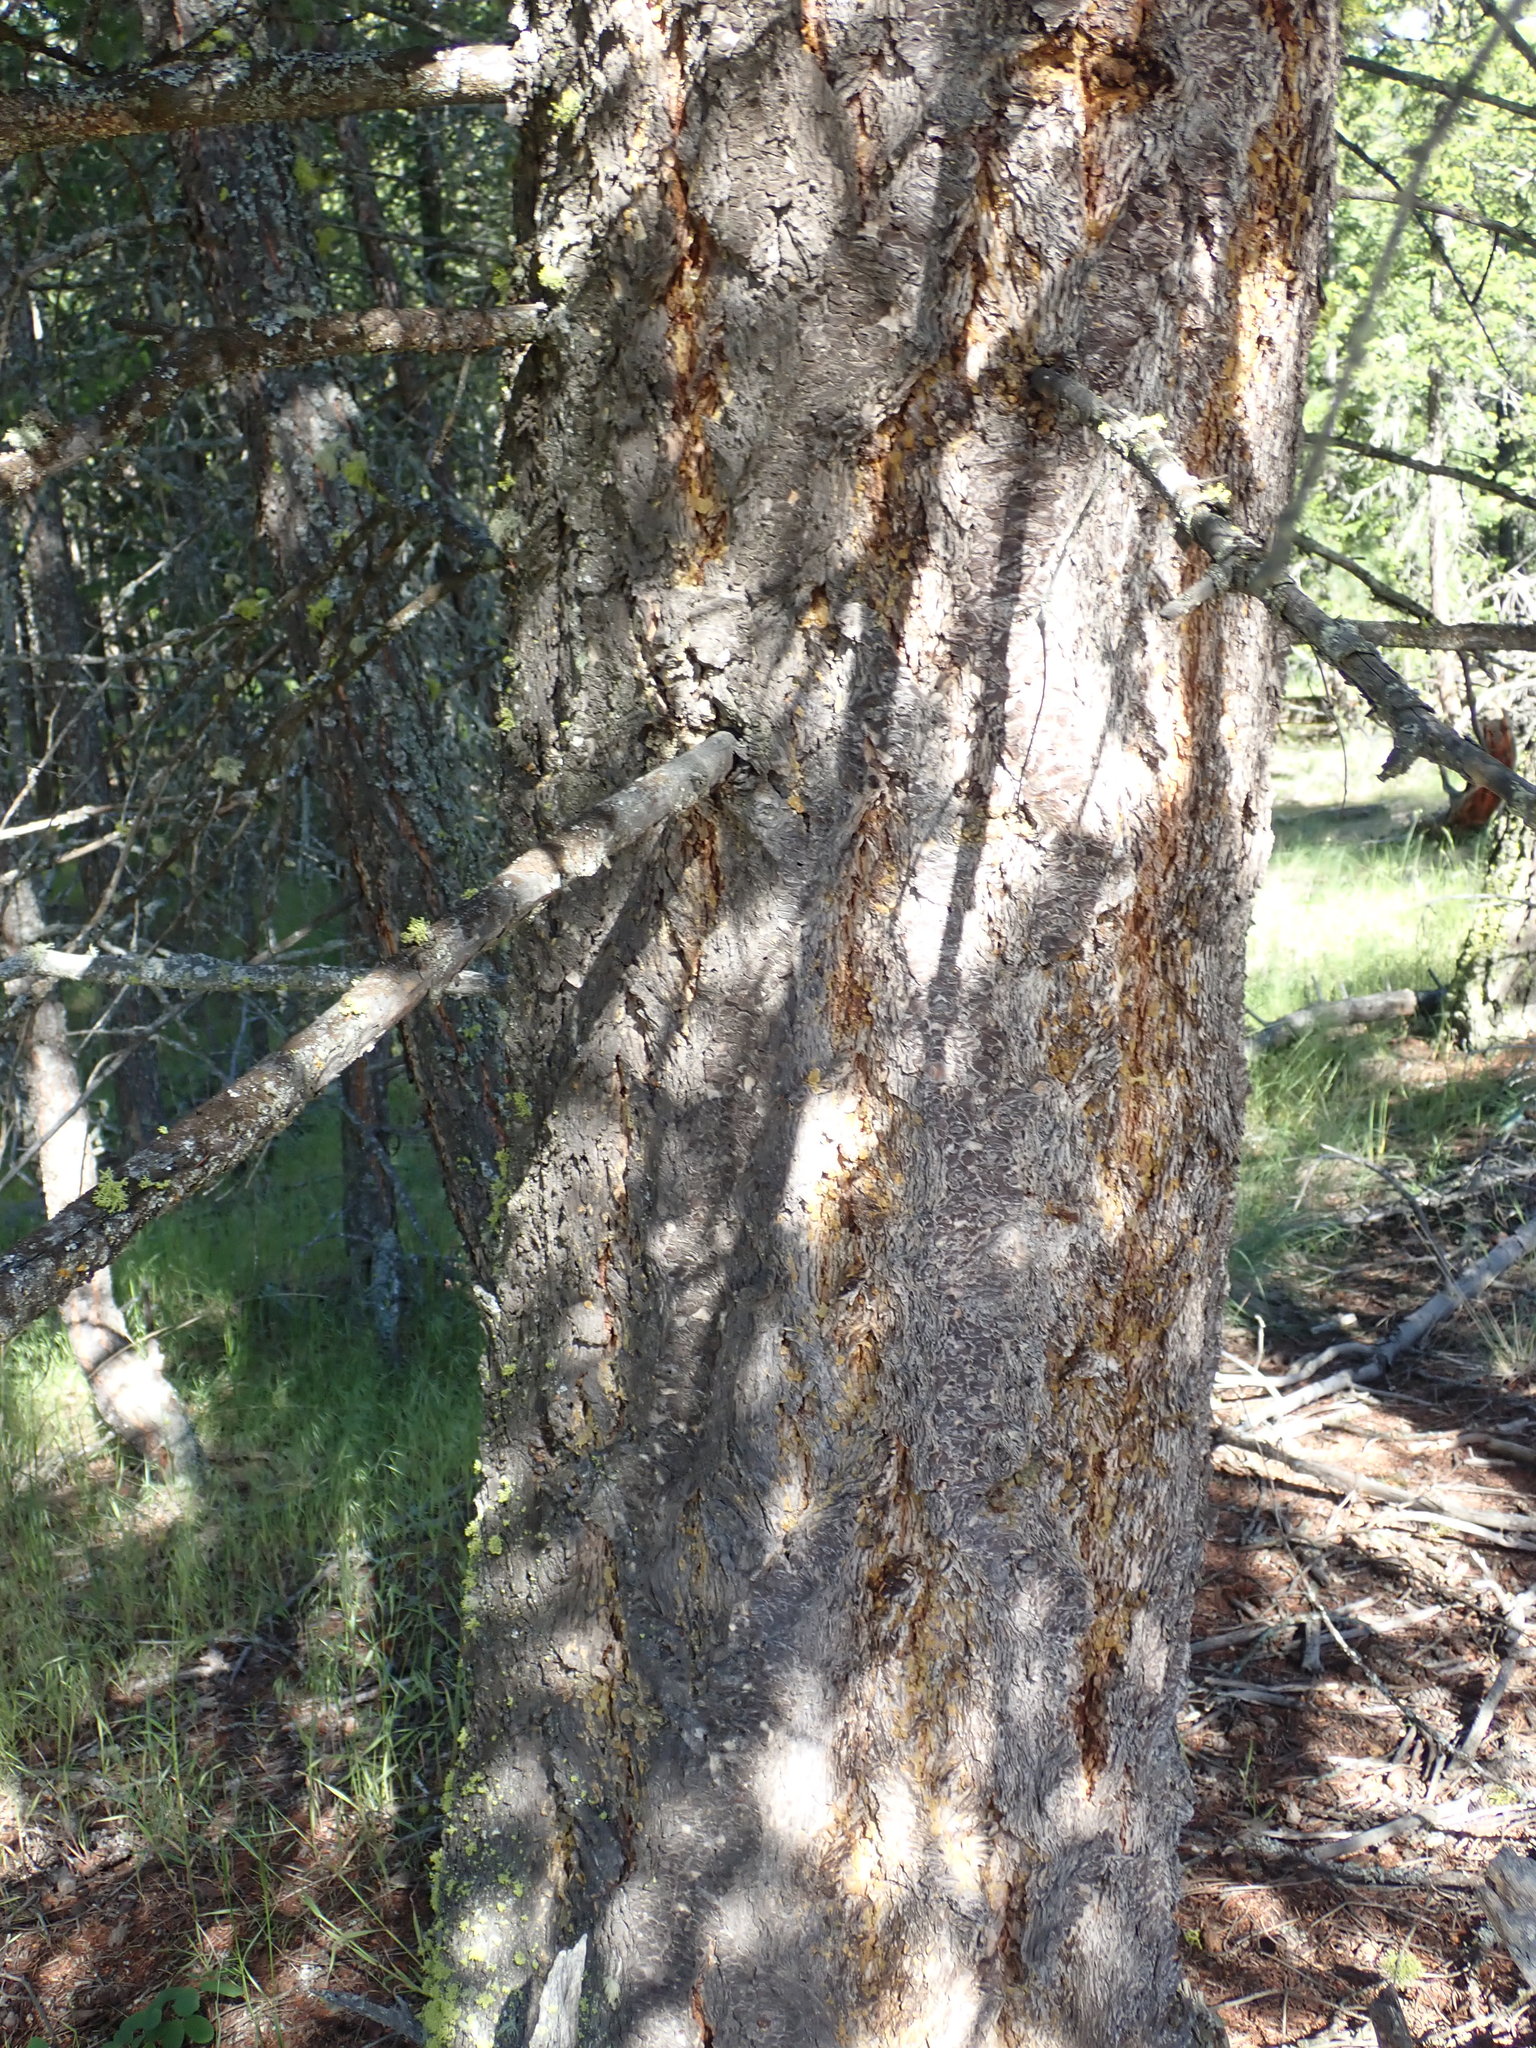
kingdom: Plantae
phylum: Tracheophyta
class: Pinopsida
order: Pinales
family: Pinaceae
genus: Pseudotsuga
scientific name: Pseudotsuga menziesii
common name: Douglas fir
